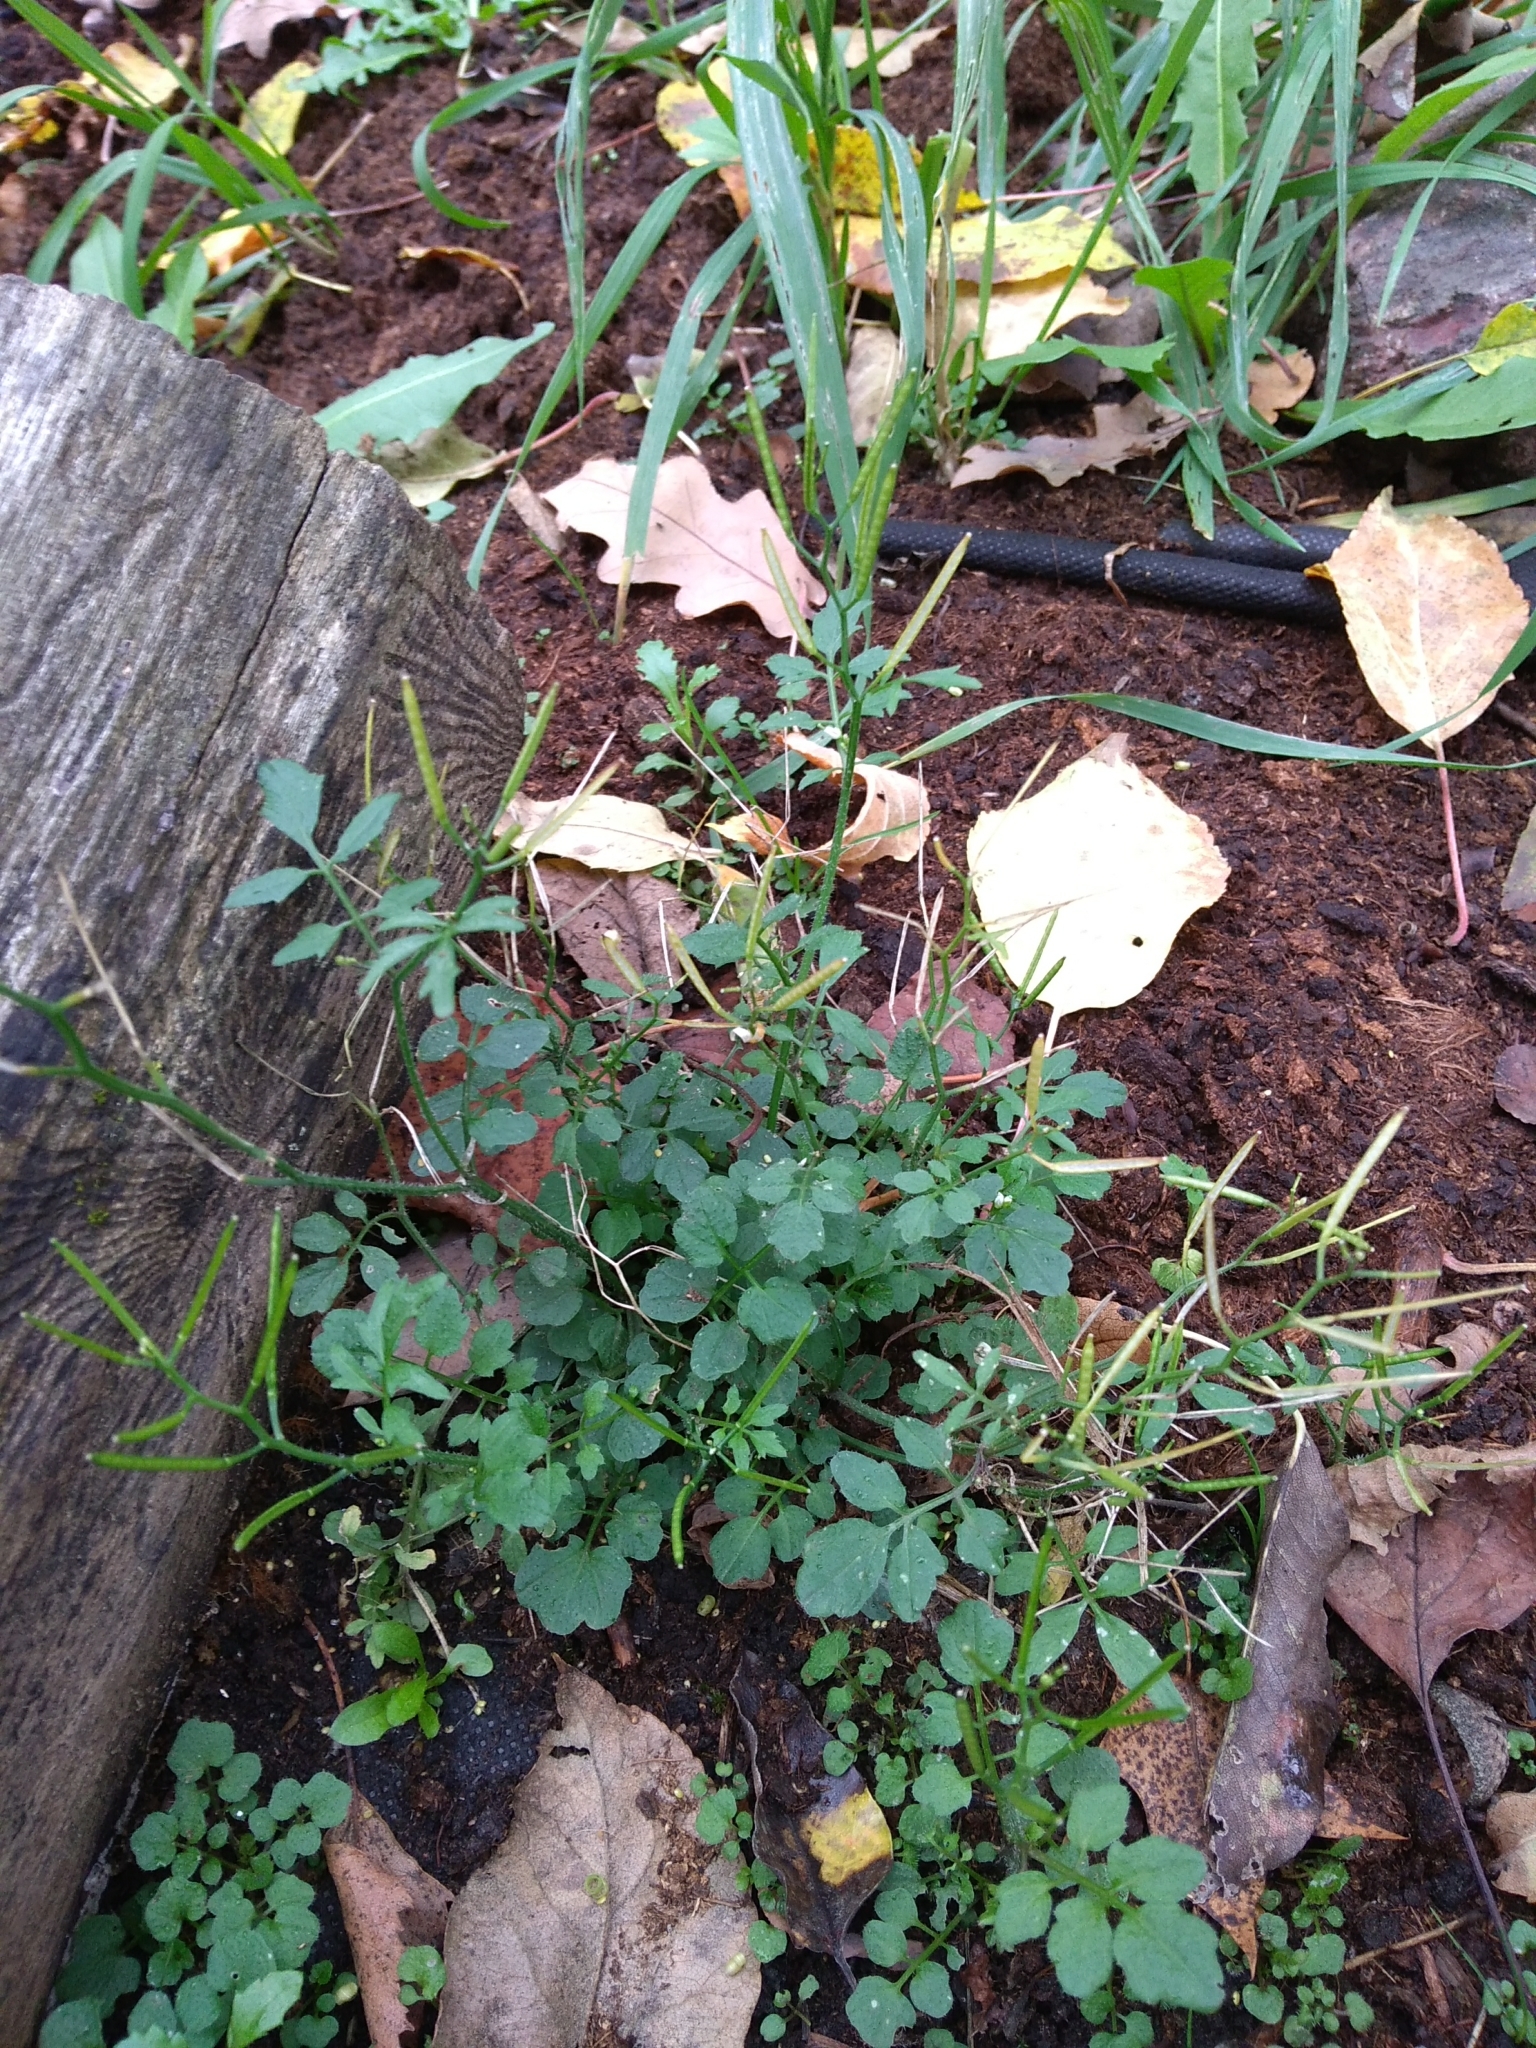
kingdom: Plantae
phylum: Tracheophyta
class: Magnoliopsida
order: Brassicales
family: Brassicaceae
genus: Cardamine
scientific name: Cardamine flexuosa
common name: Woodland bittercress
